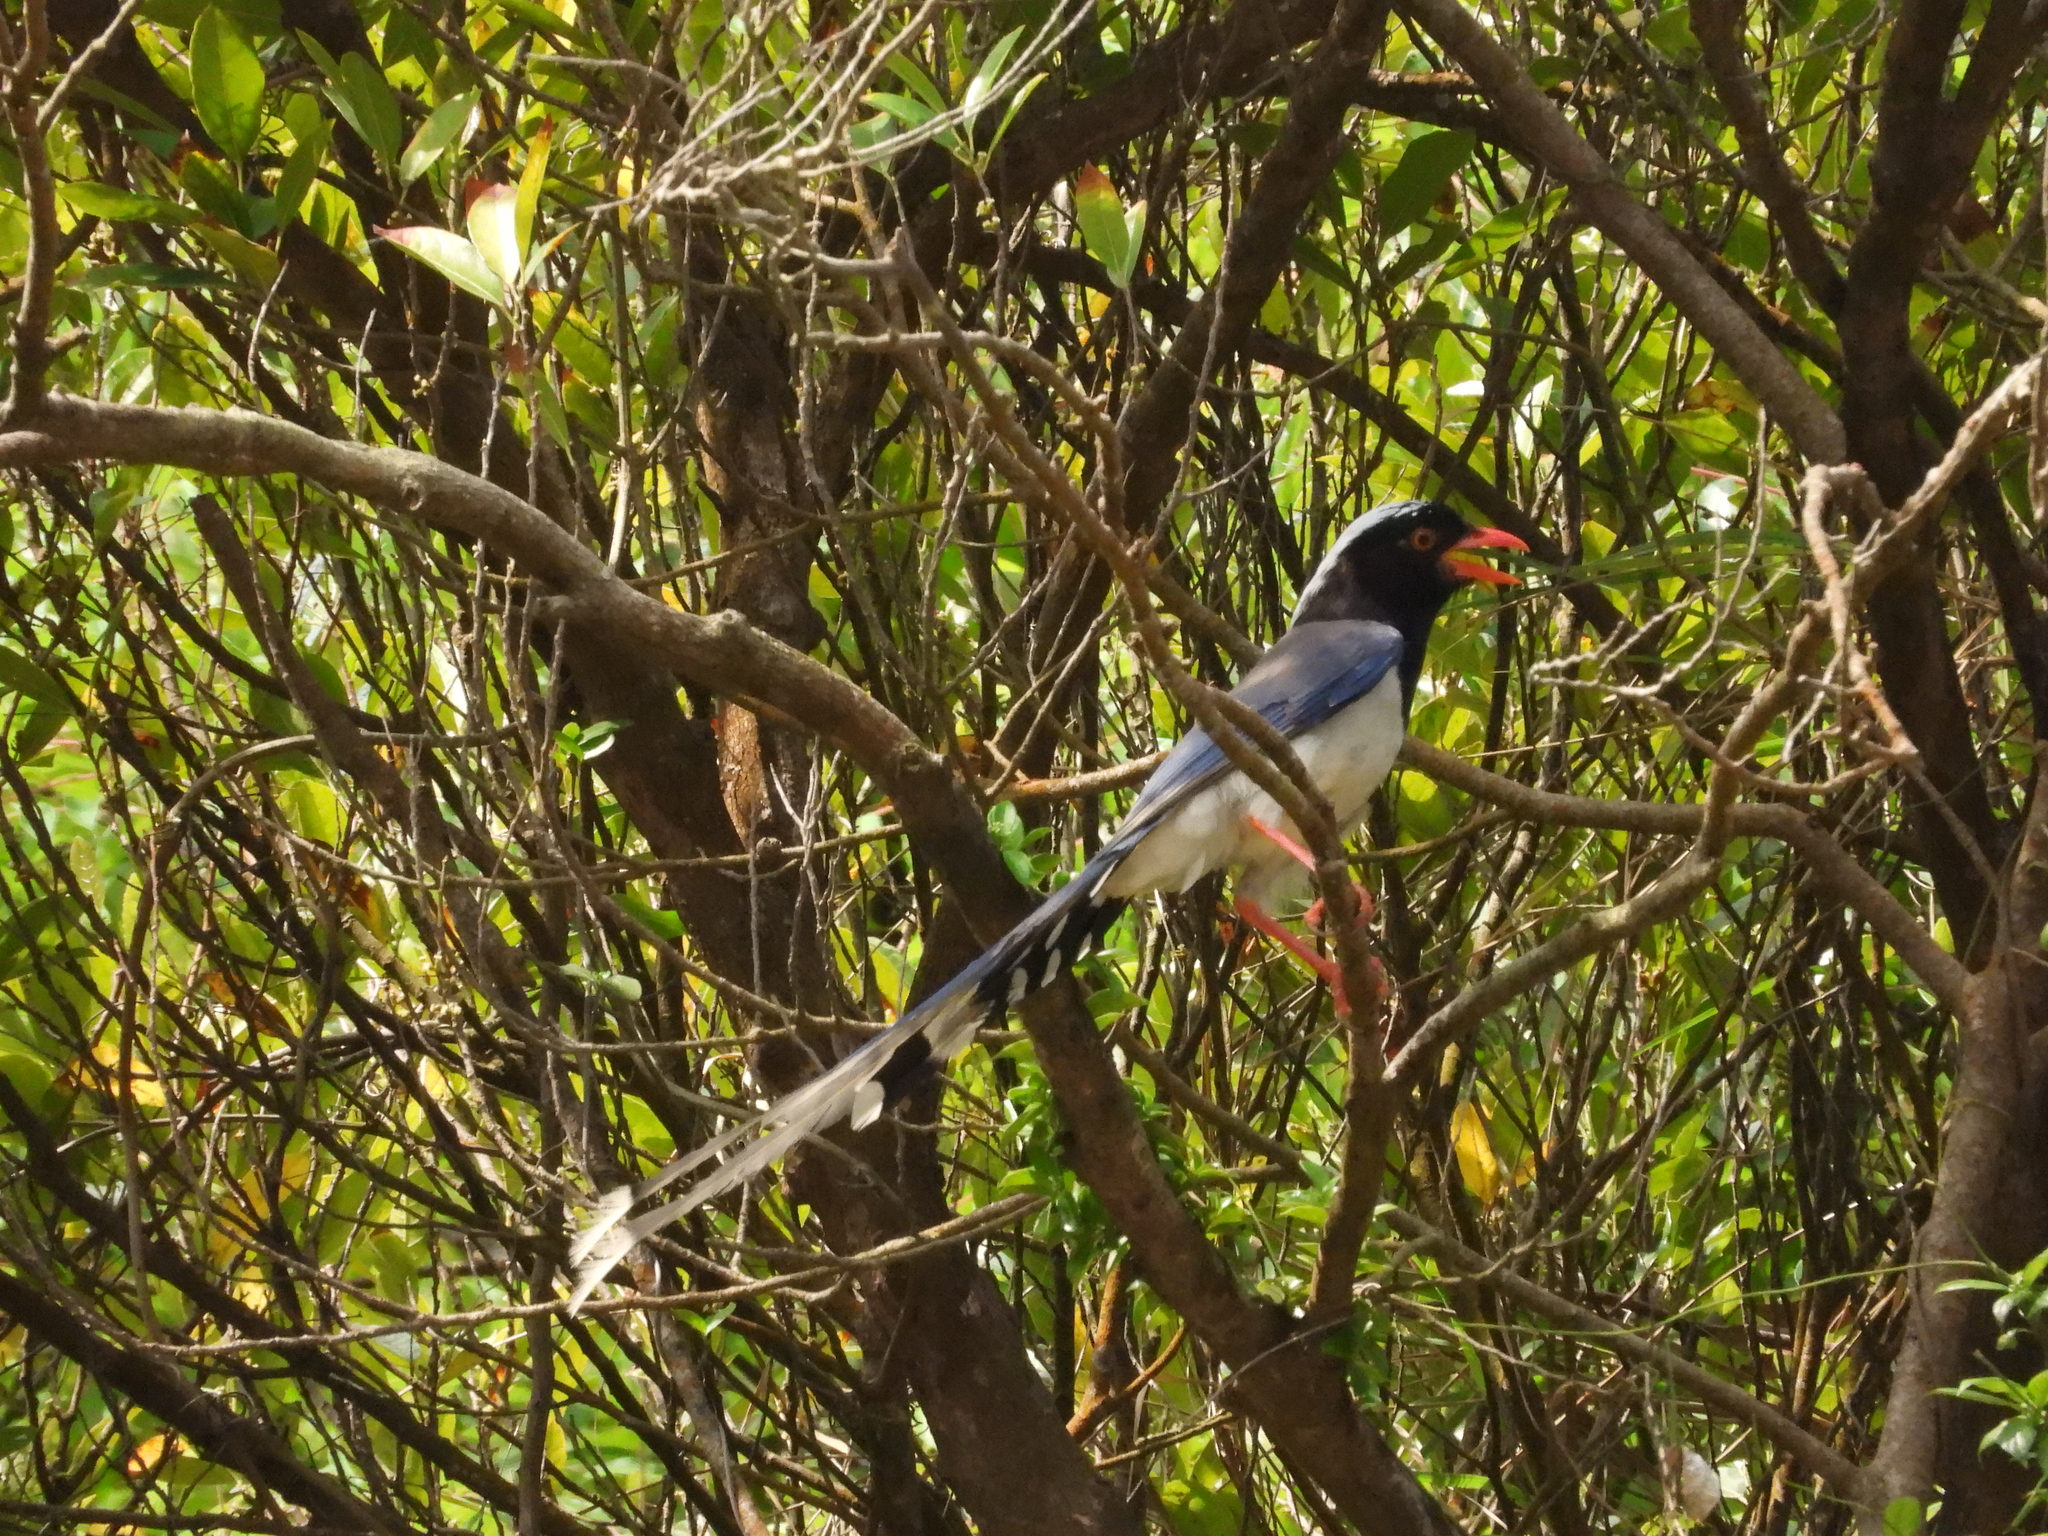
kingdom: Animalia
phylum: Chordata
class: Aves
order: Passeriformes
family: Corvidae
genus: Urocissa
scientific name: Urocissa erythroryncha
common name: Red-billed blue magpie
